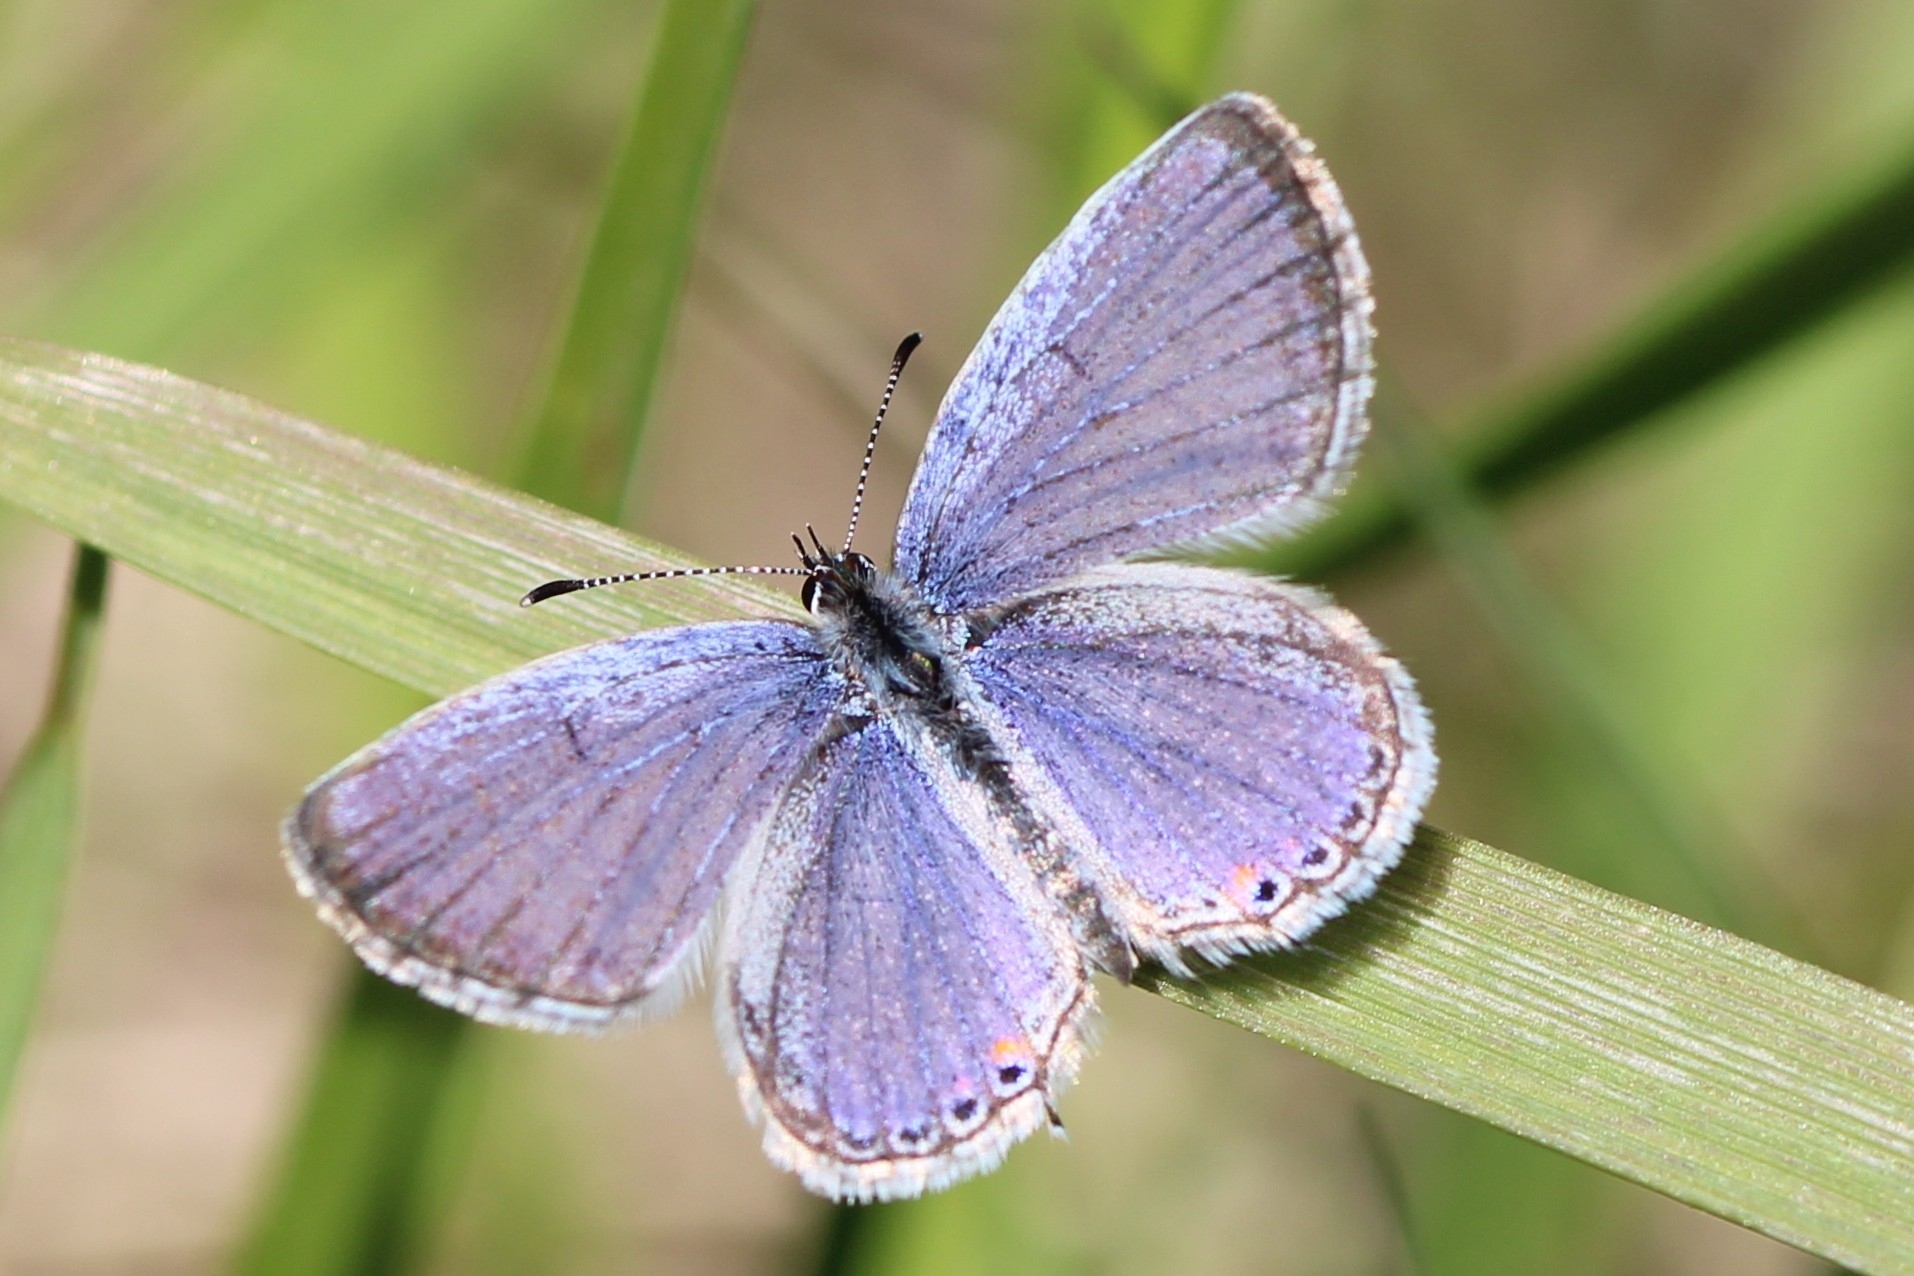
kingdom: Animalia
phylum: Arthropoda
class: Insecta
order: Lepidoptera
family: Lycaenidae
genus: Elkalyce
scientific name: Elkalyce comyntas
